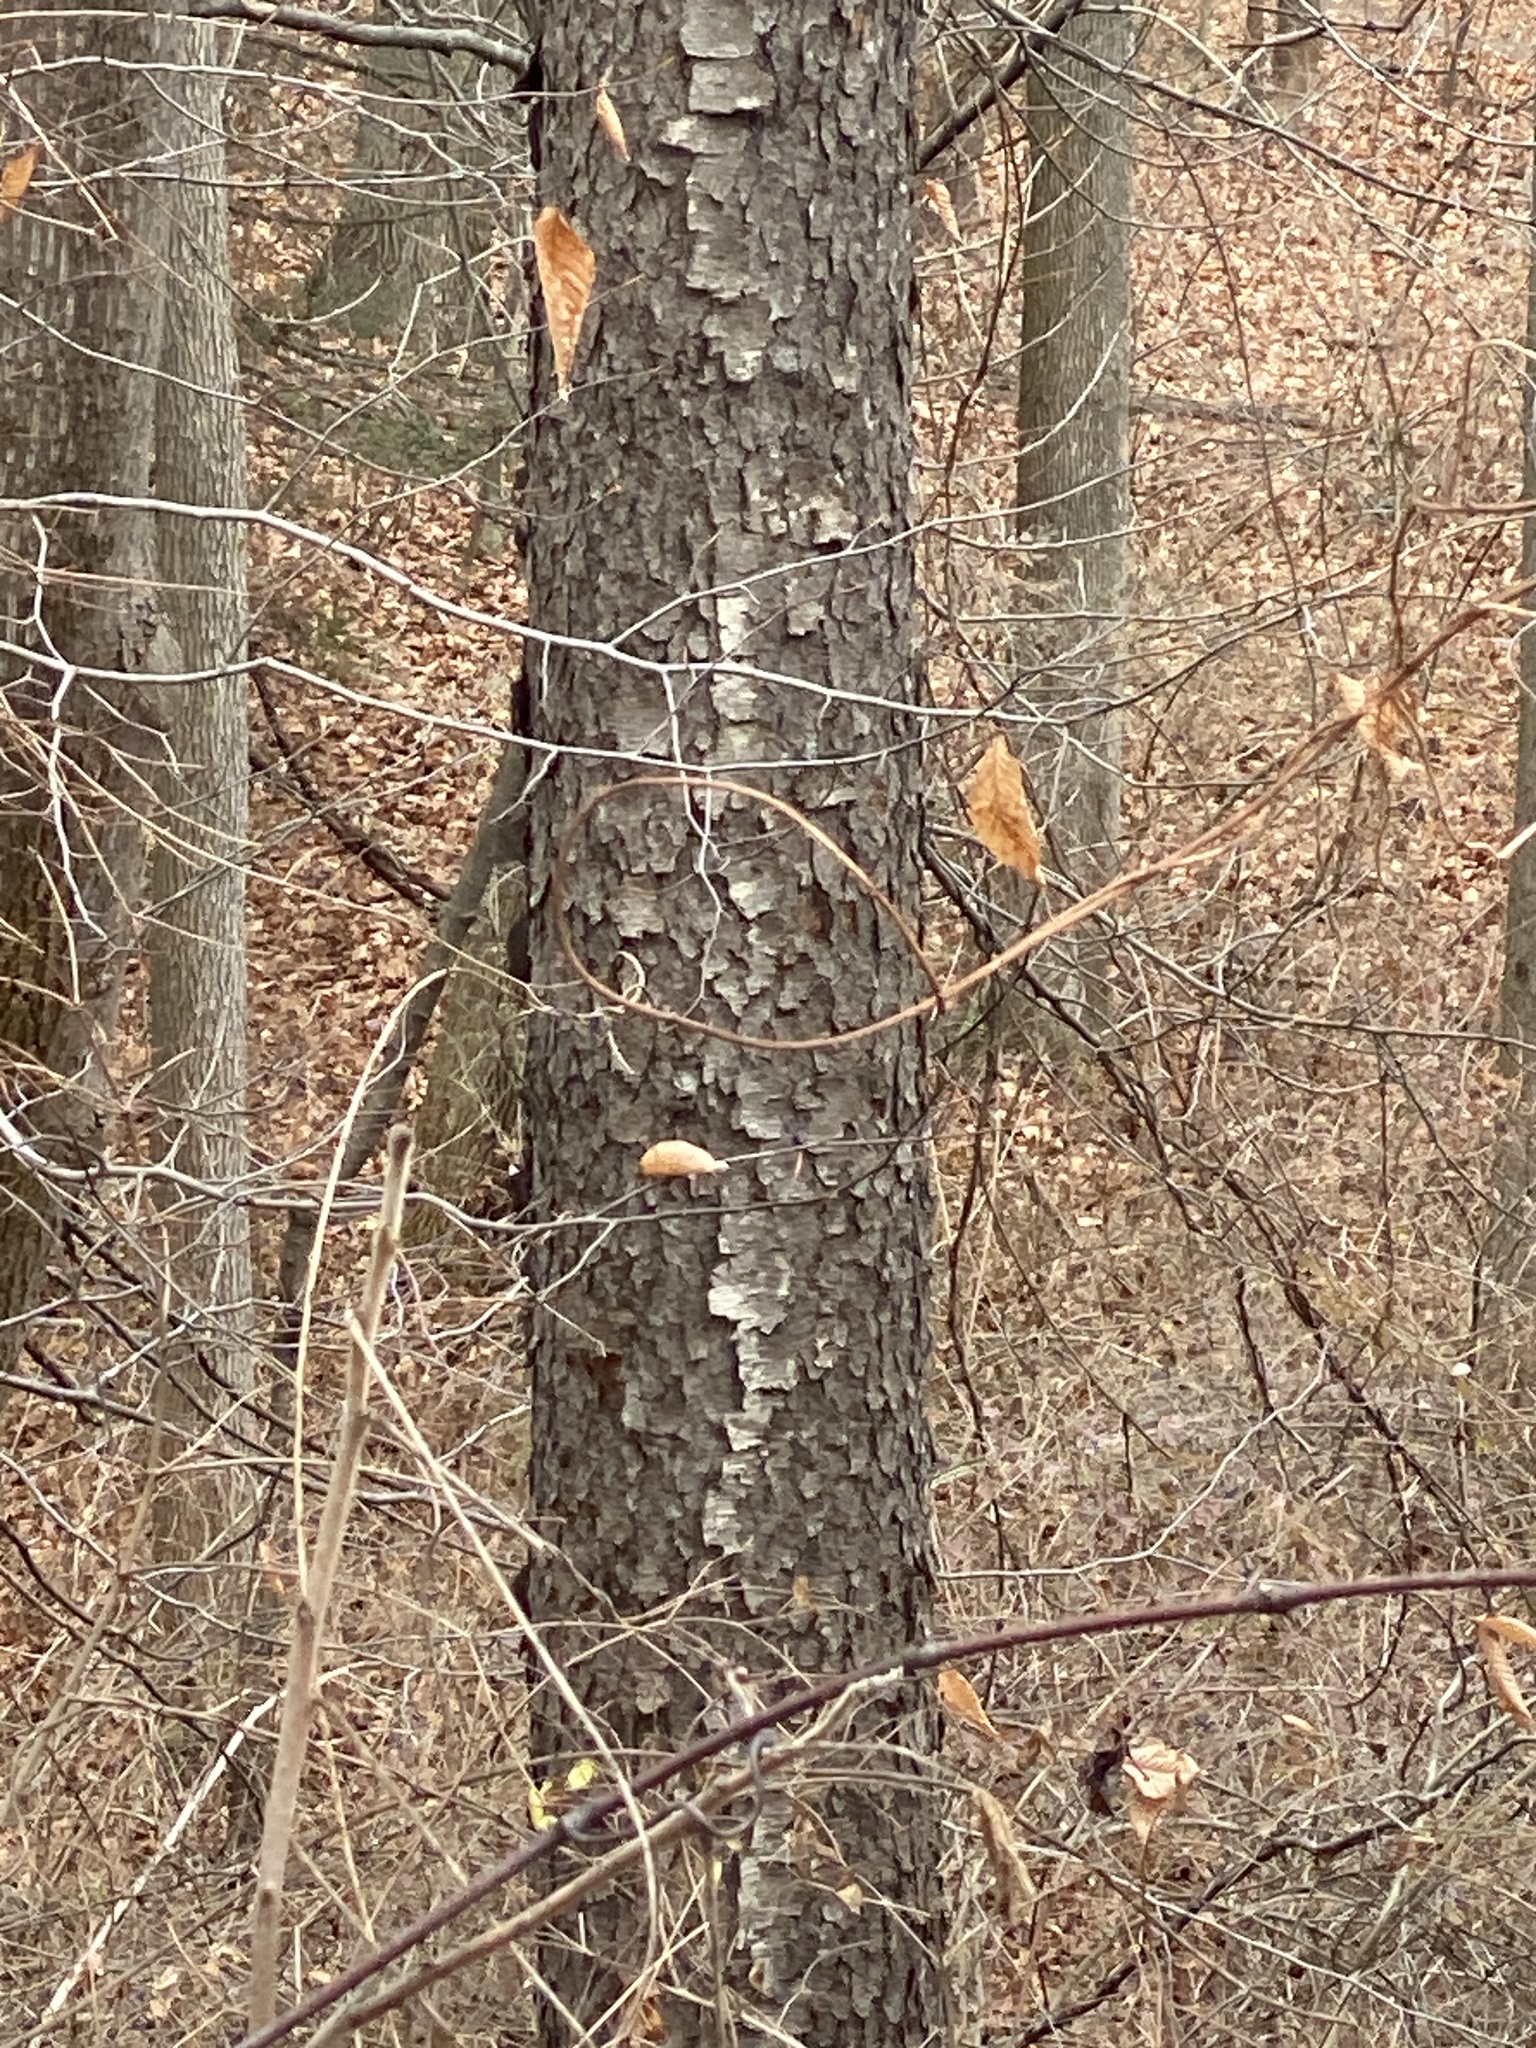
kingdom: Plantae
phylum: Tracheophyta
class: Magnoliopsida
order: Rosales
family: Rosaceae
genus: Prunus
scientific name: Prunus serotina
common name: Black cherry
